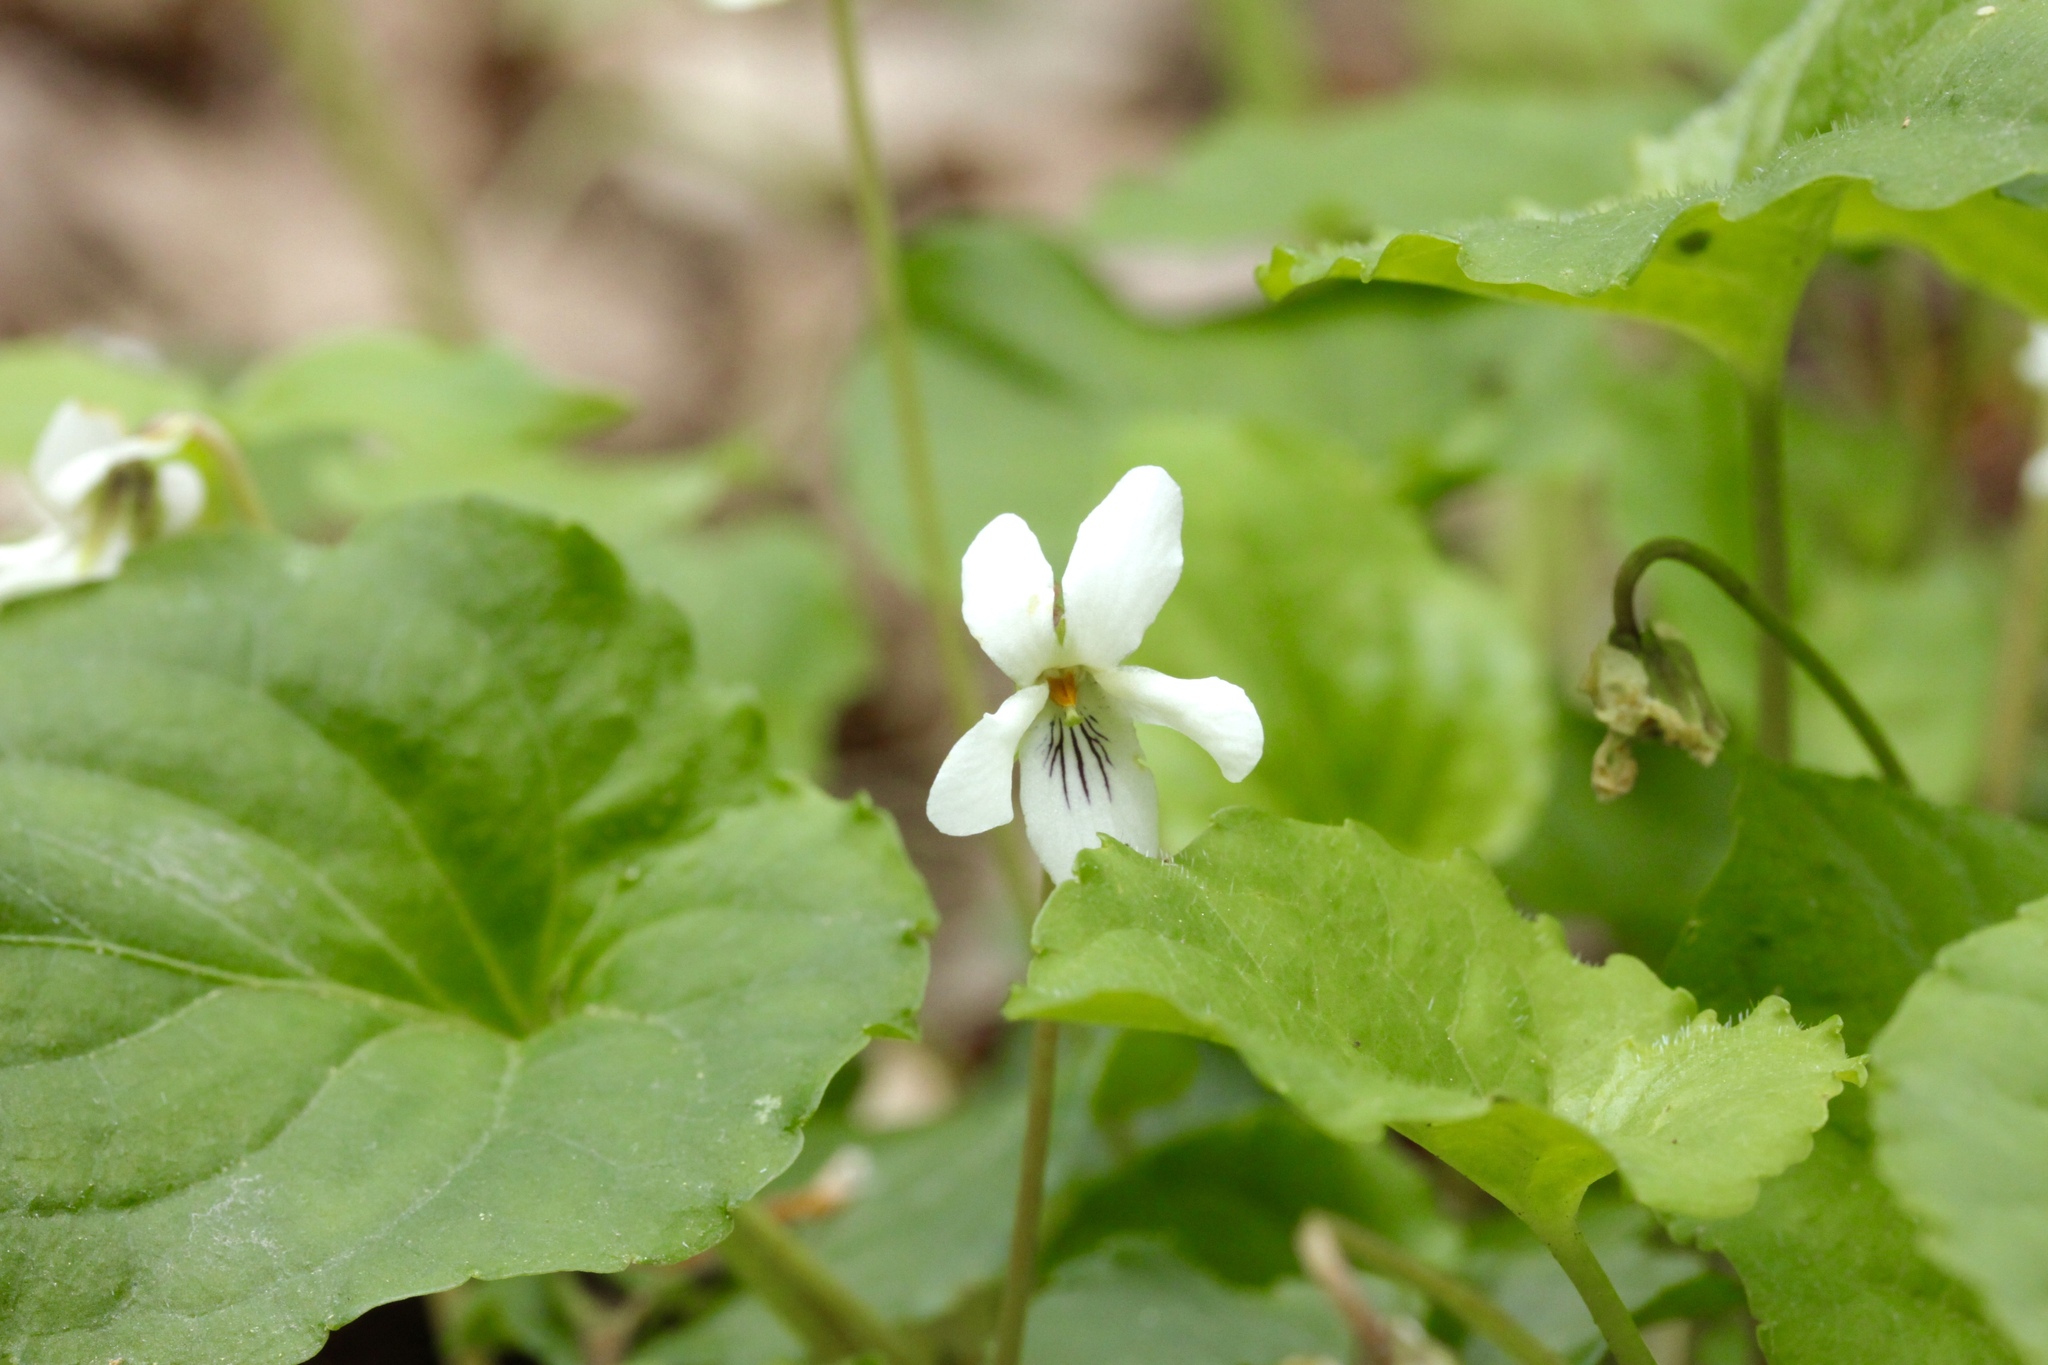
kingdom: Plantae
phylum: Tracheophyta
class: Magnoliopsida
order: Malpighiales
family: Violaceae
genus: Viola
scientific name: Viola blanda
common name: Sweet white violet
